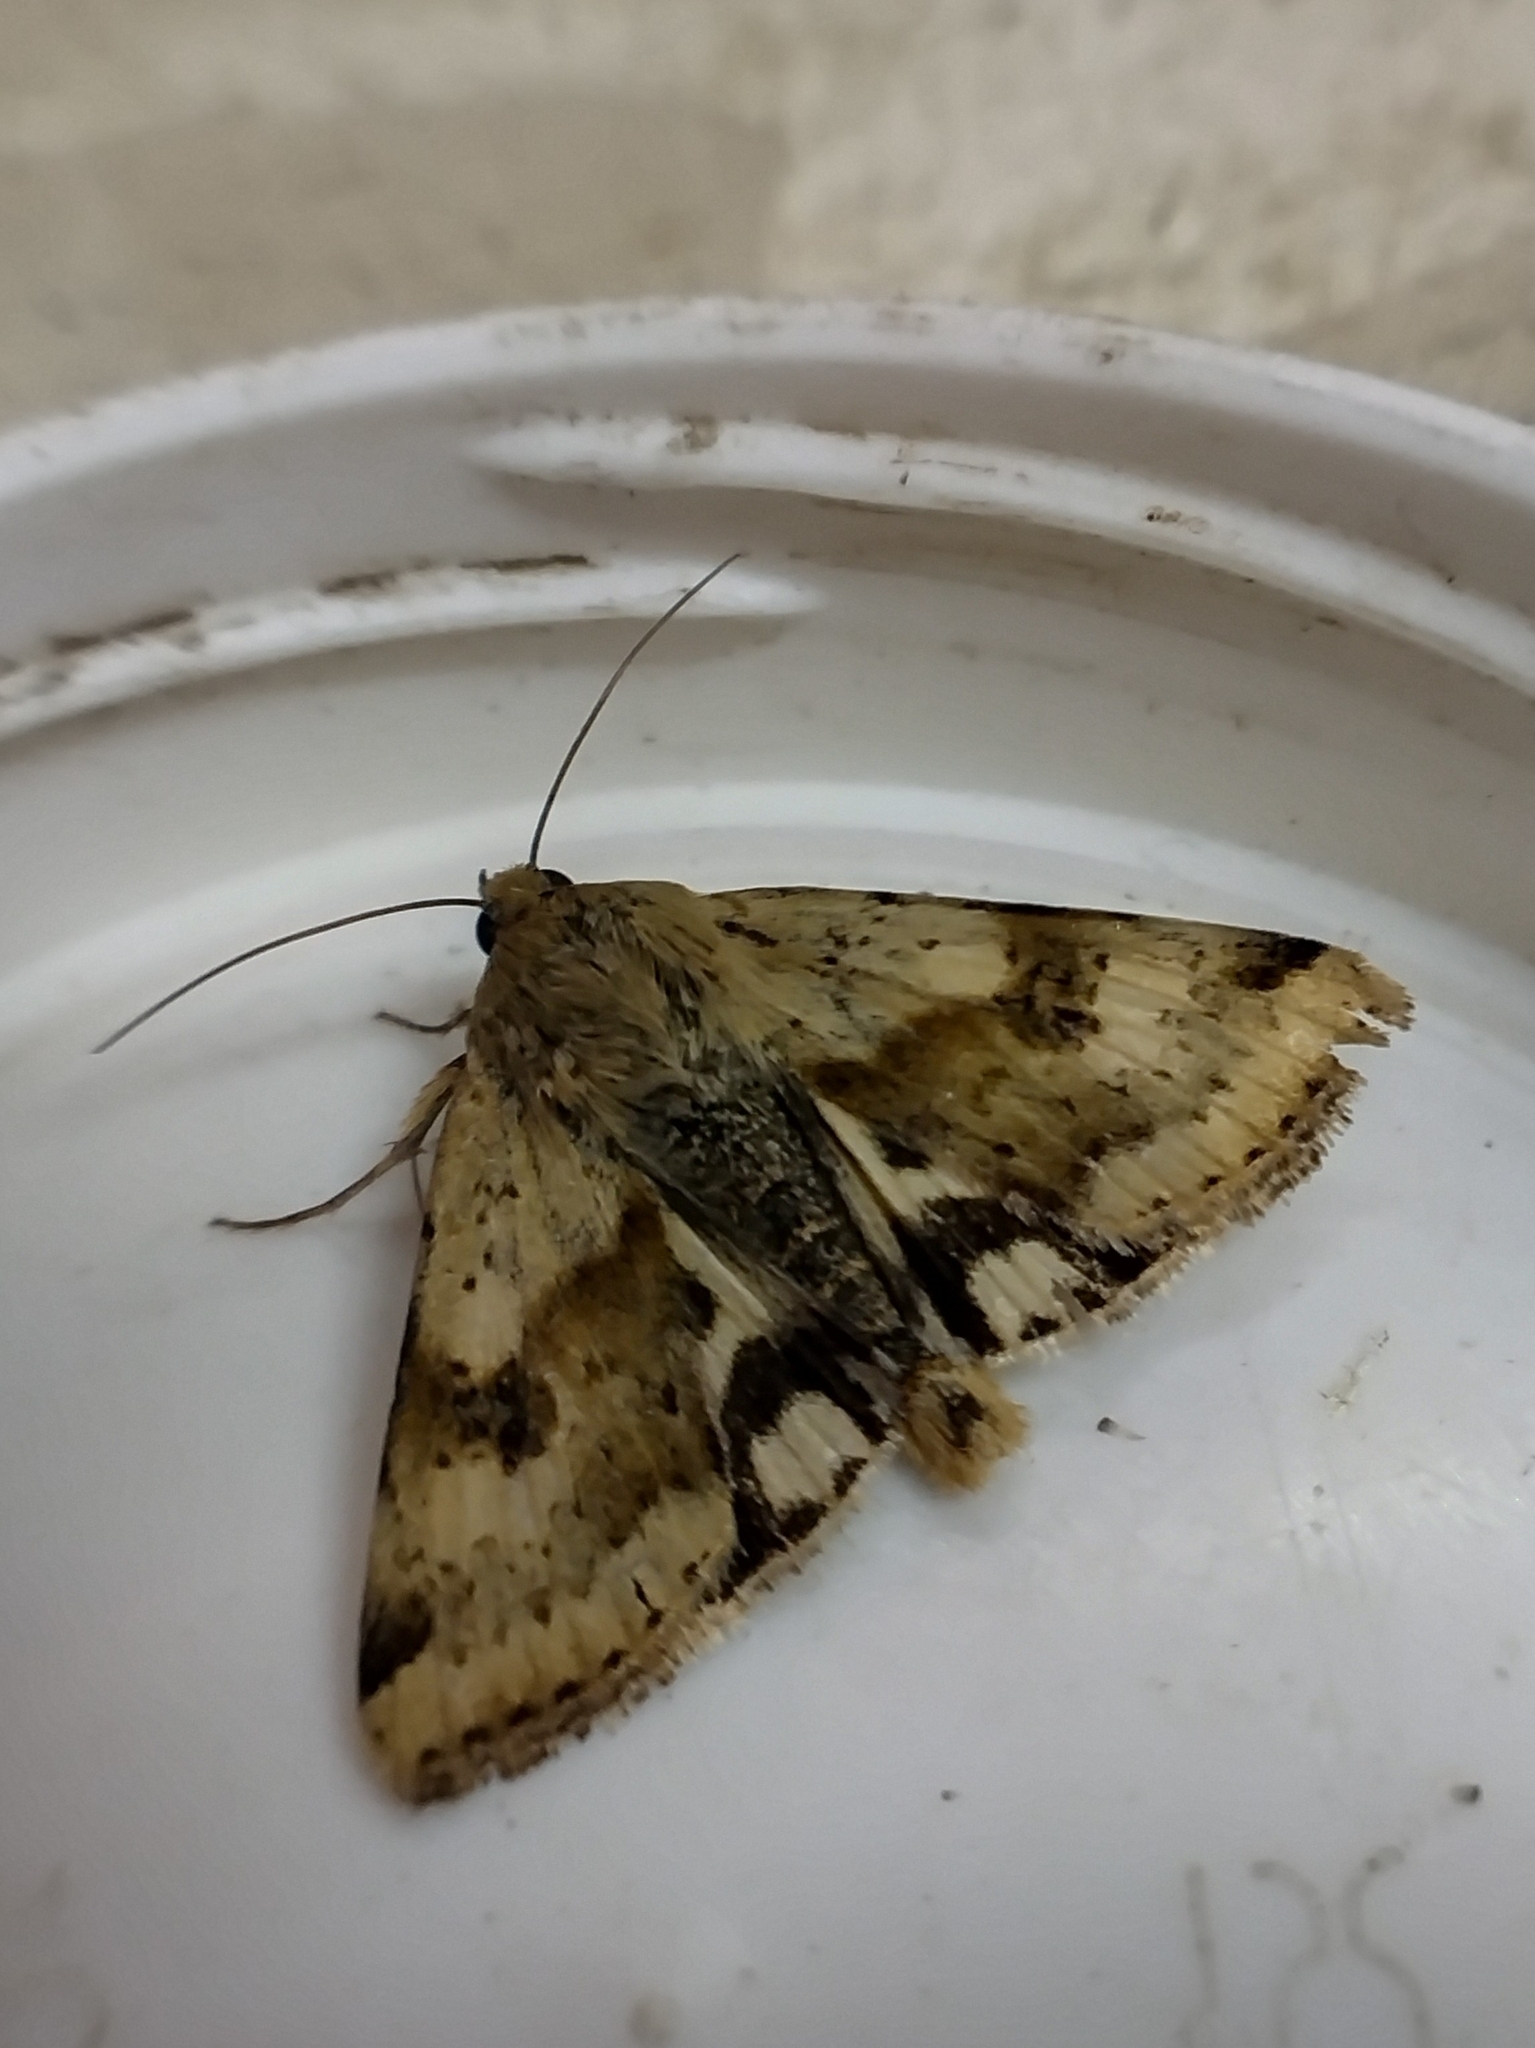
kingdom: Animalia
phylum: Arthropoda
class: Insecta
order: Lepidoptera
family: Noctuidae
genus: Heliothis
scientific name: Heliothis viriplaca
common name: Marbled clover
